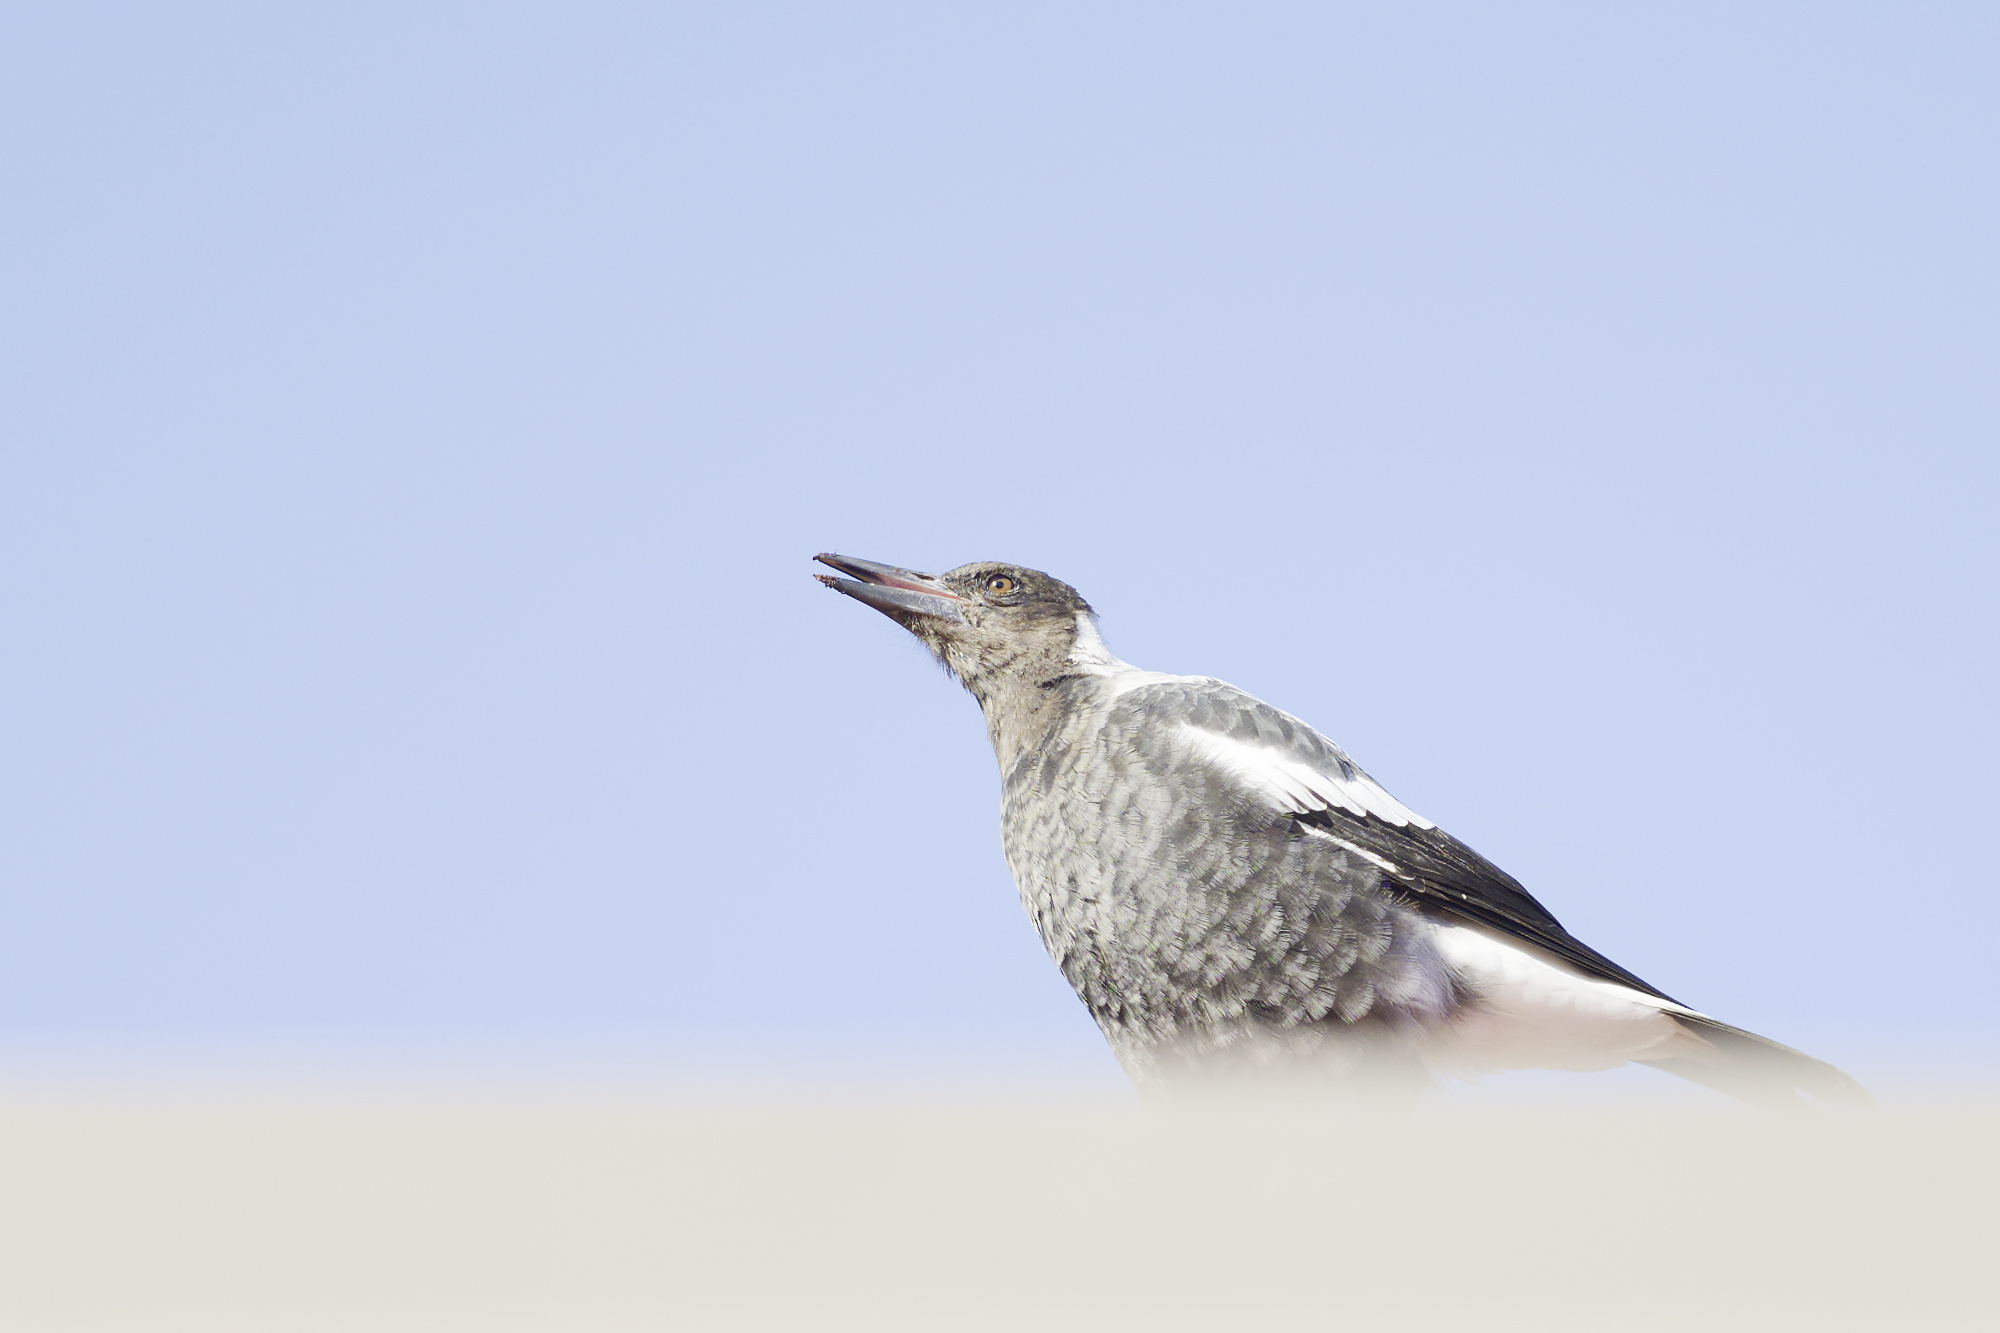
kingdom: Animalia
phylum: Chordata
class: Aves
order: Passeriformes
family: Cracticidae
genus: Gymnorhina
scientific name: Gymnorhina tibicen
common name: Australian magpie
